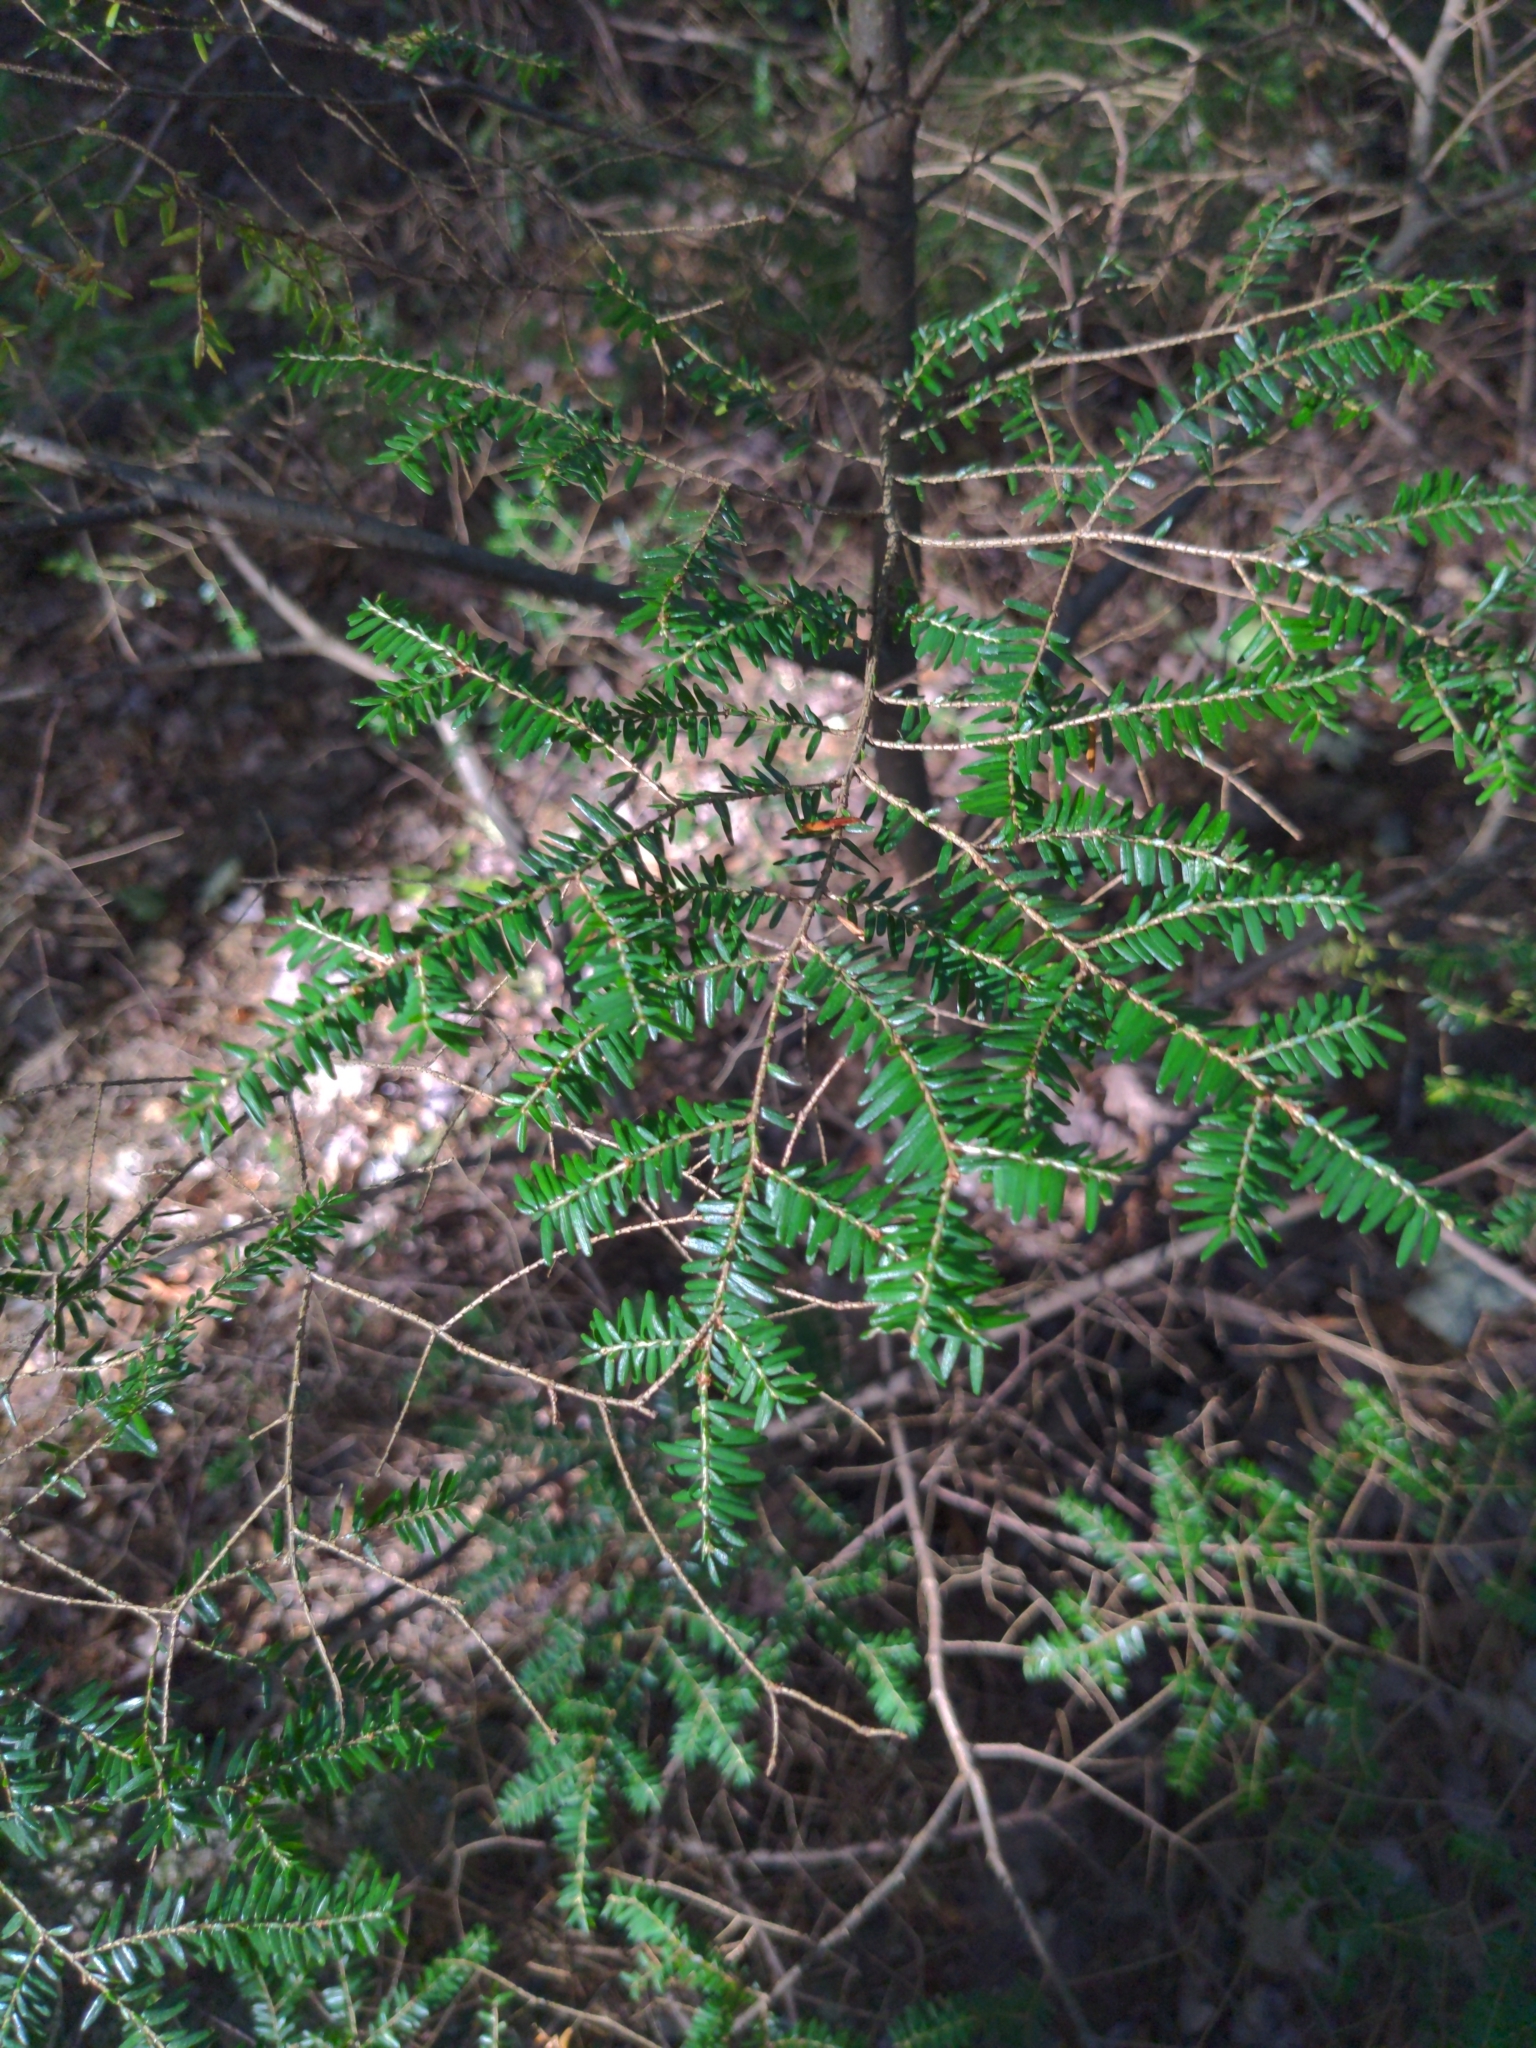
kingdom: Plantae
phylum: Tracheophyta
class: Pinopsida
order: Pinales
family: Pinaceae
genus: Tsuga
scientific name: Tsuga canadensis
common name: Eastern hemlock
